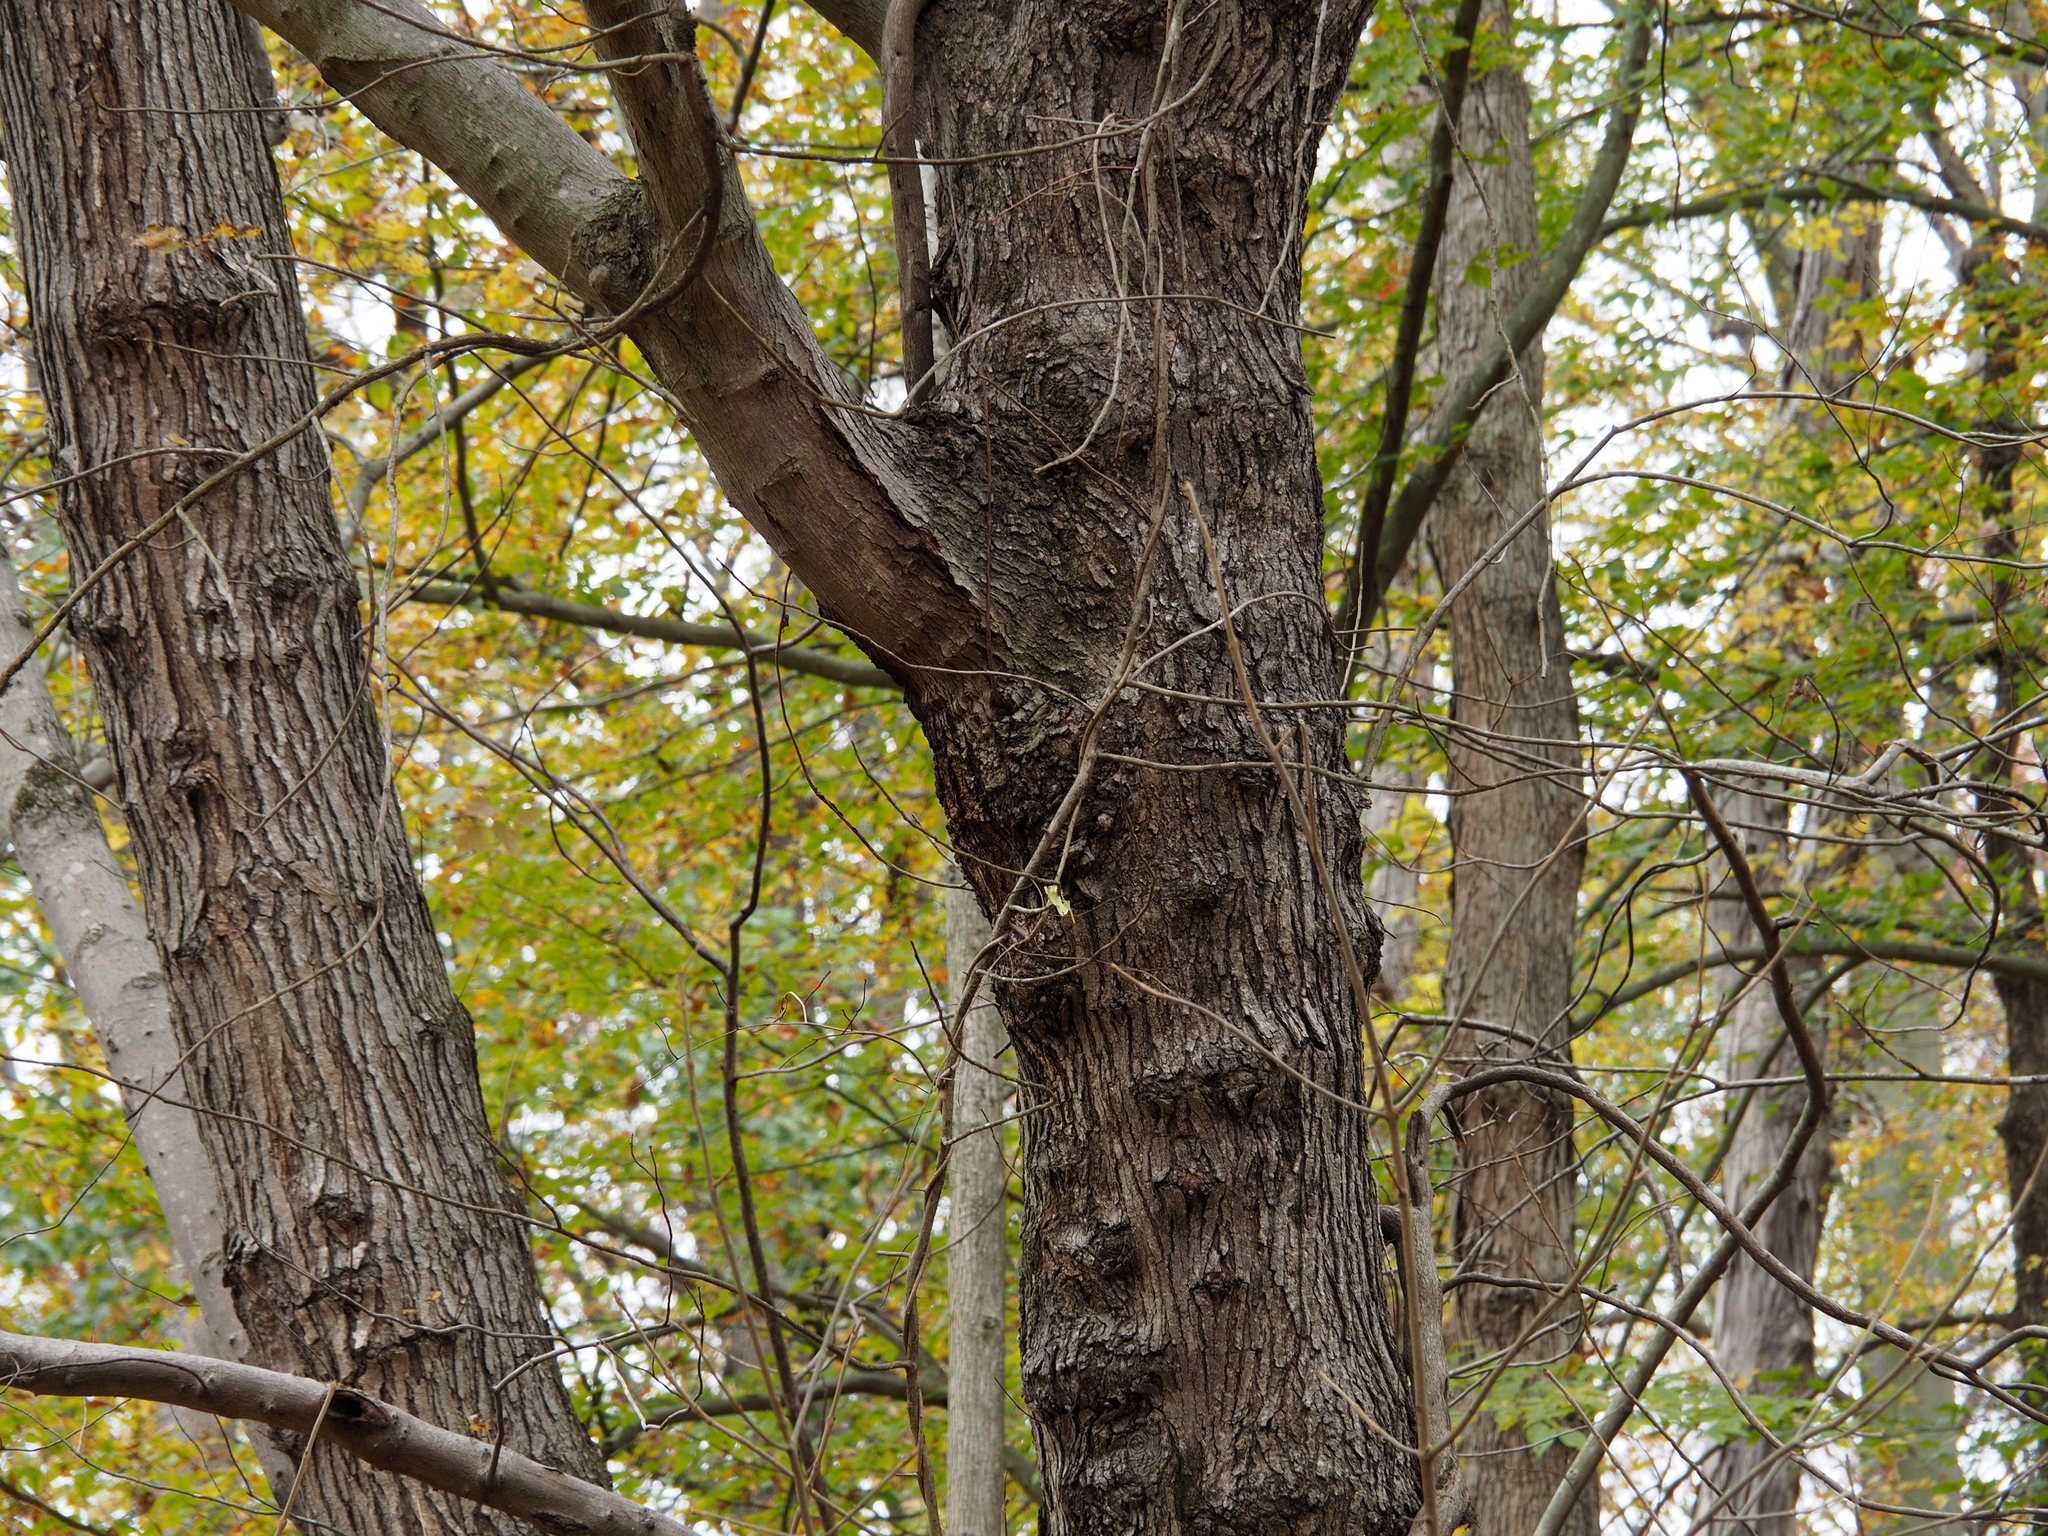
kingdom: Plantae
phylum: Tracheophyta
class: Magnoliopsida
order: Sapindales
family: Sapindaceae
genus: Acer
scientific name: Acer rubrum
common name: Red maple
